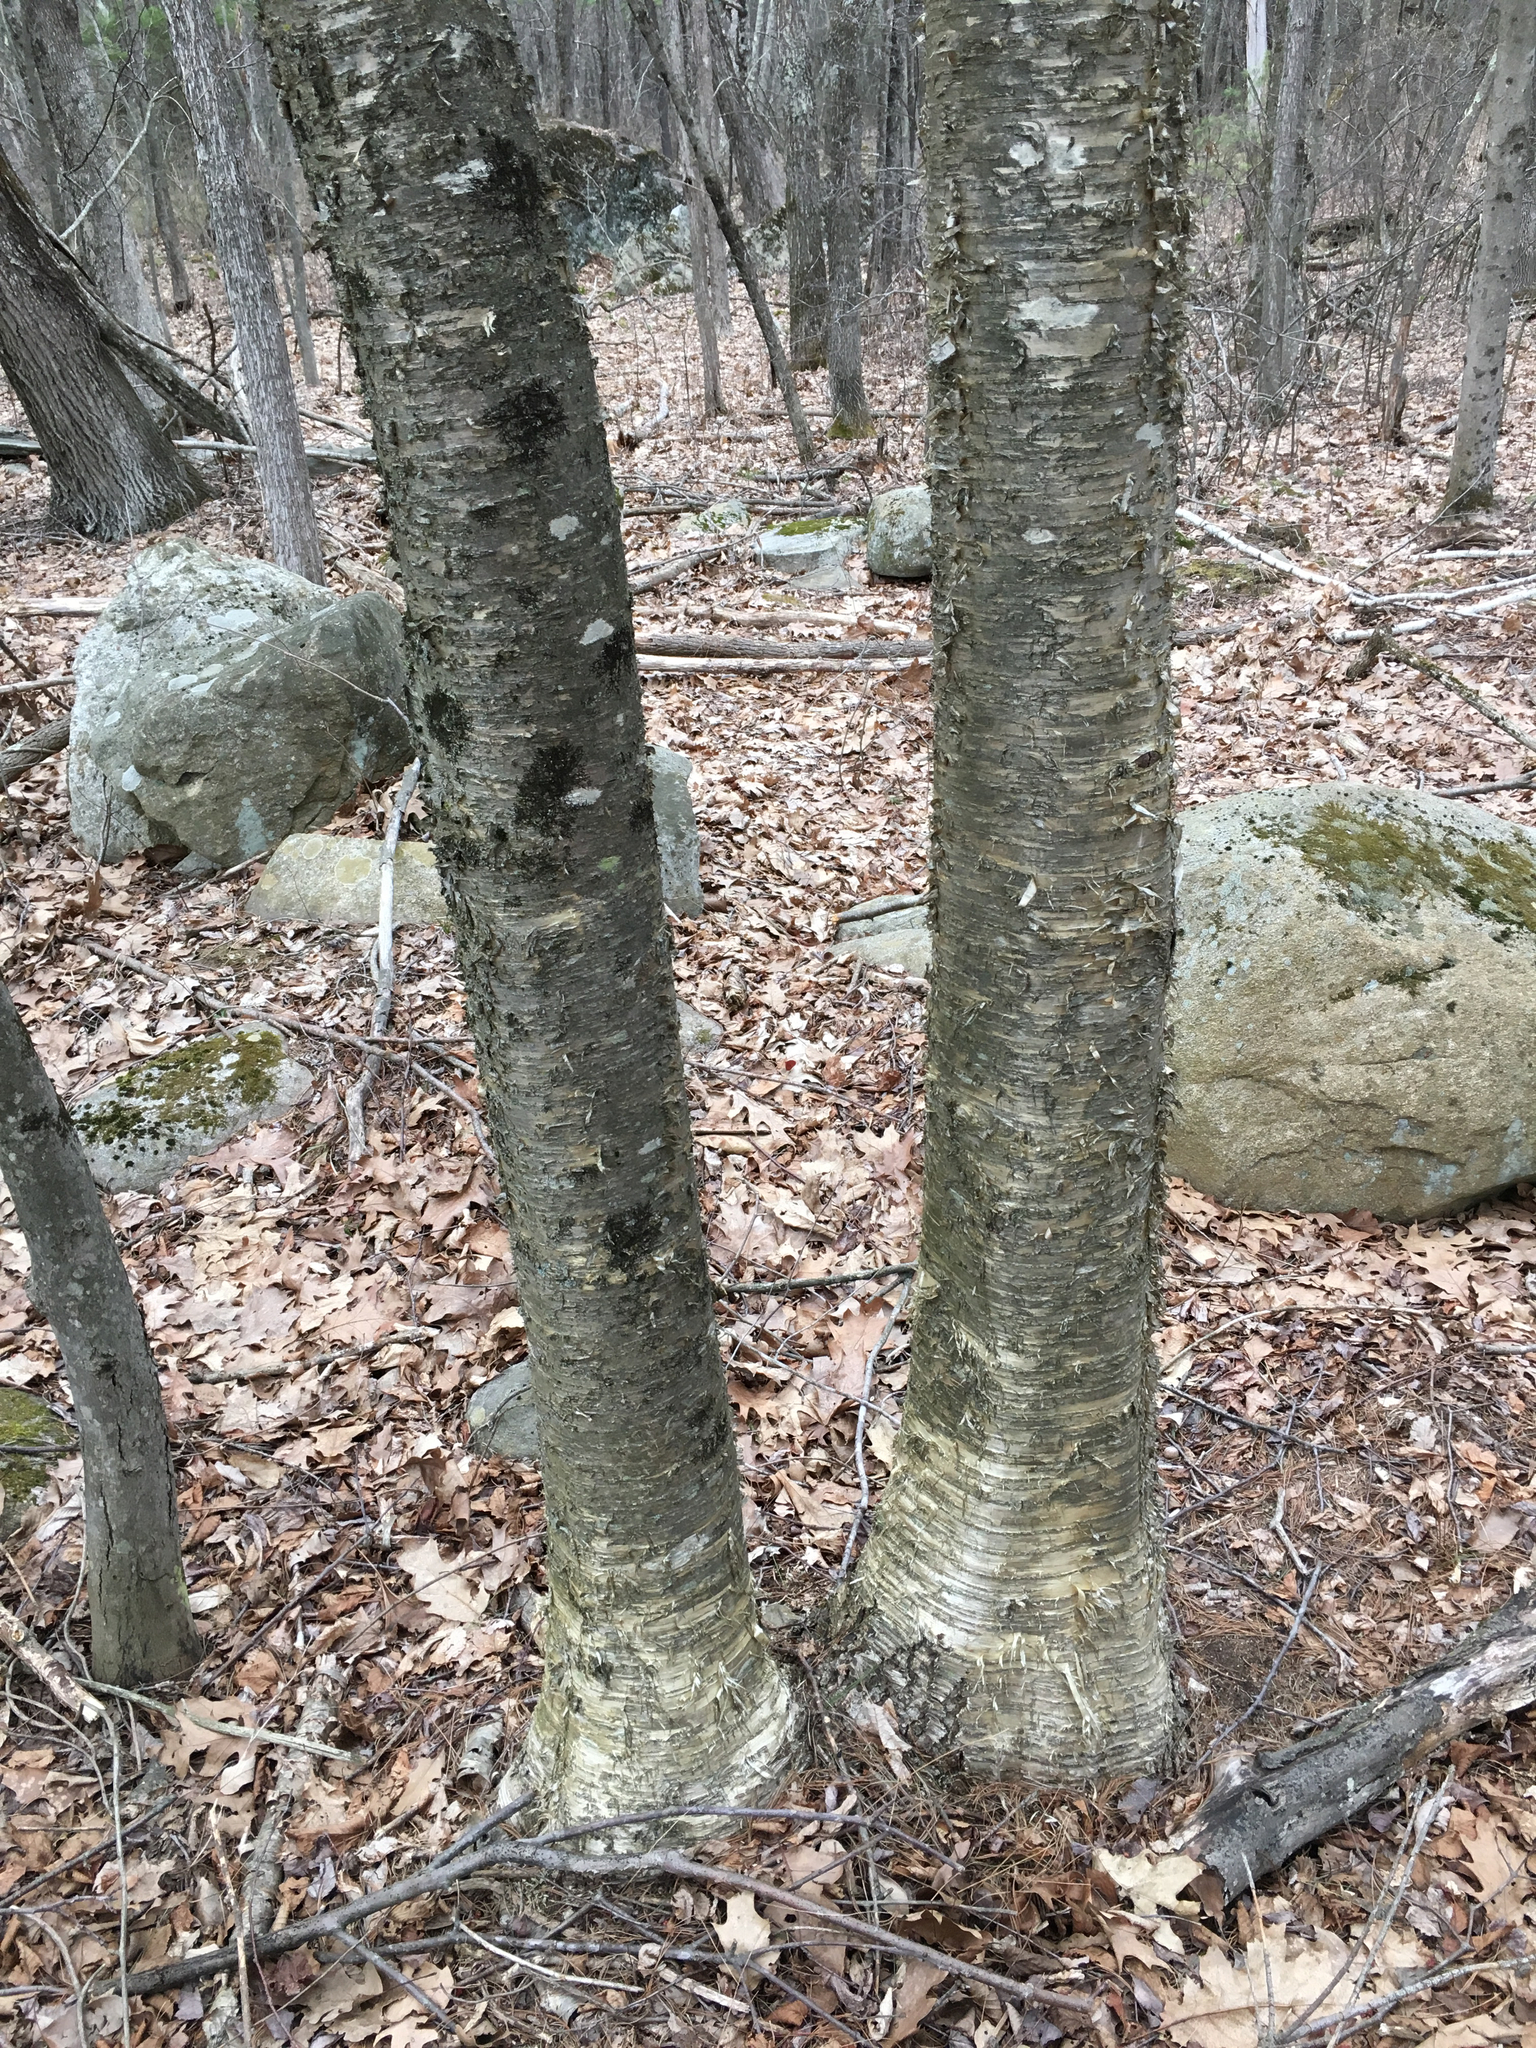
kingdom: Plantae
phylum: Tracheophyta
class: Magnoliopsida
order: Fagales
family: Betulaceae
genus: Betula
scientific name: Betula alleghaniensis
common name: Yellow birch
